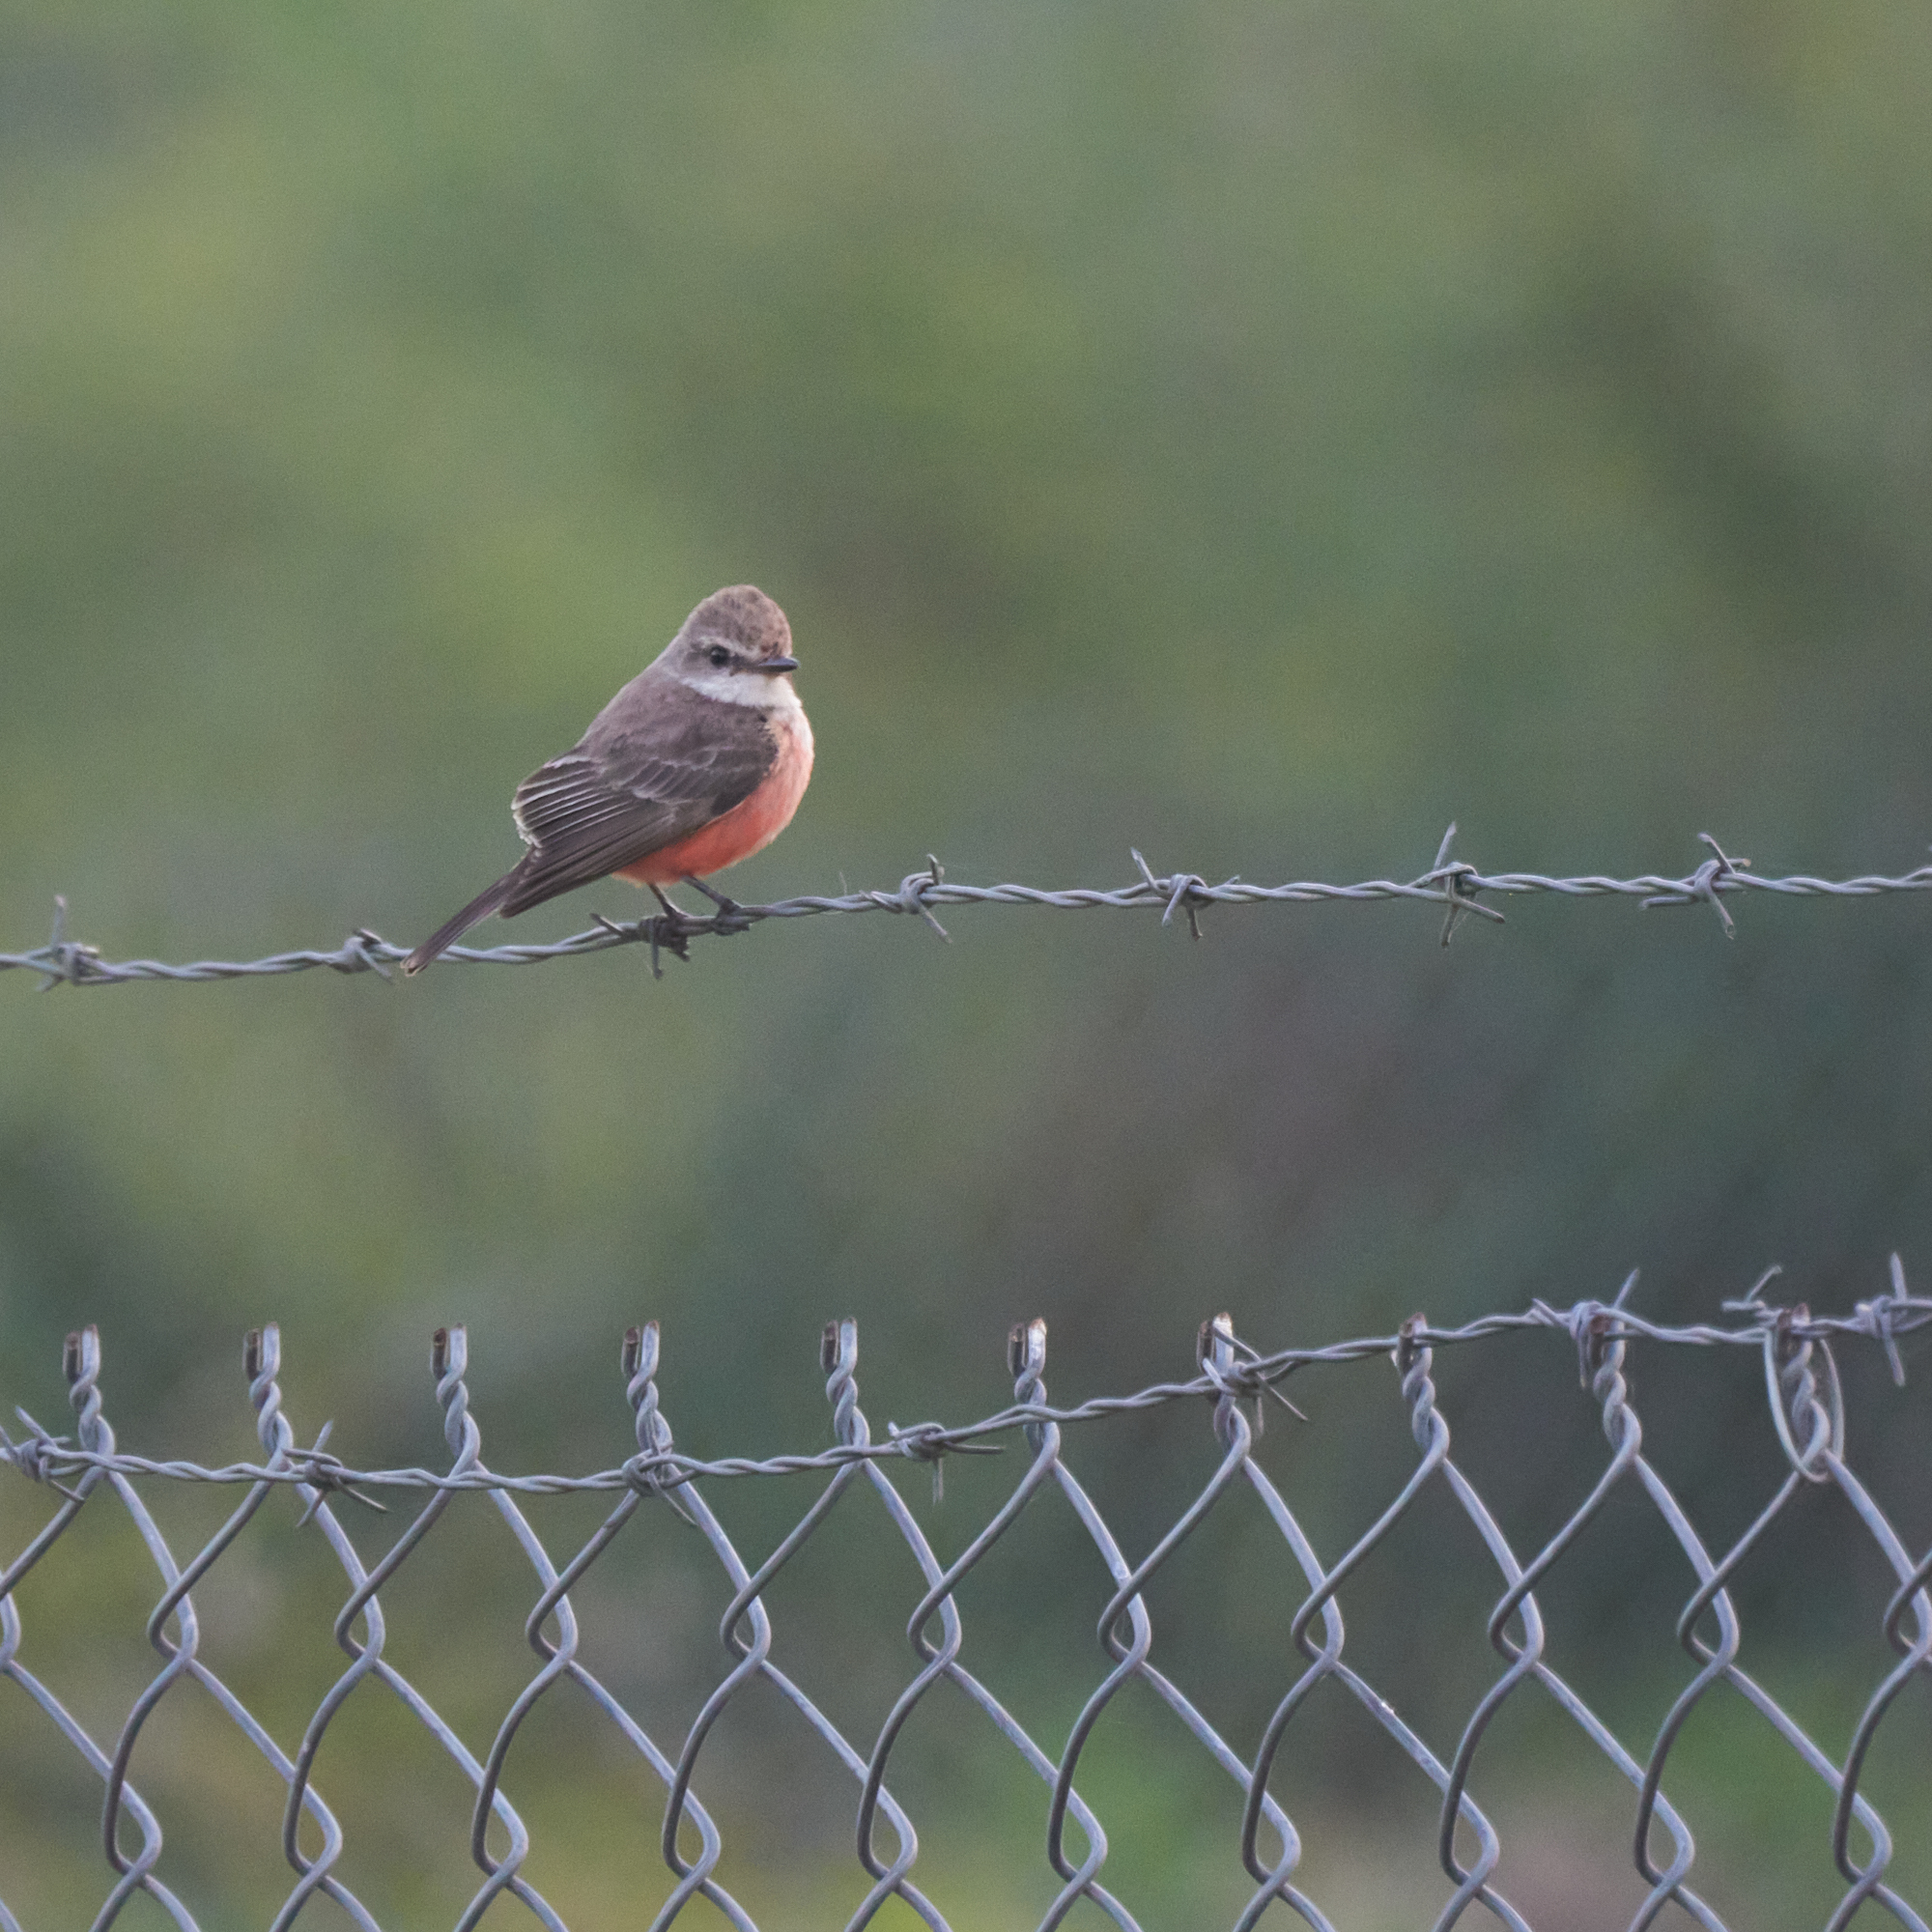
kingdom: Animalia
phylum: Chordata
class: Aves
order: Passeriformes
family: Tyrannidae
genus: Pyrocephalus
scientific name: Pyrocephalus rubinus
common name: Vermilion flycatcher
